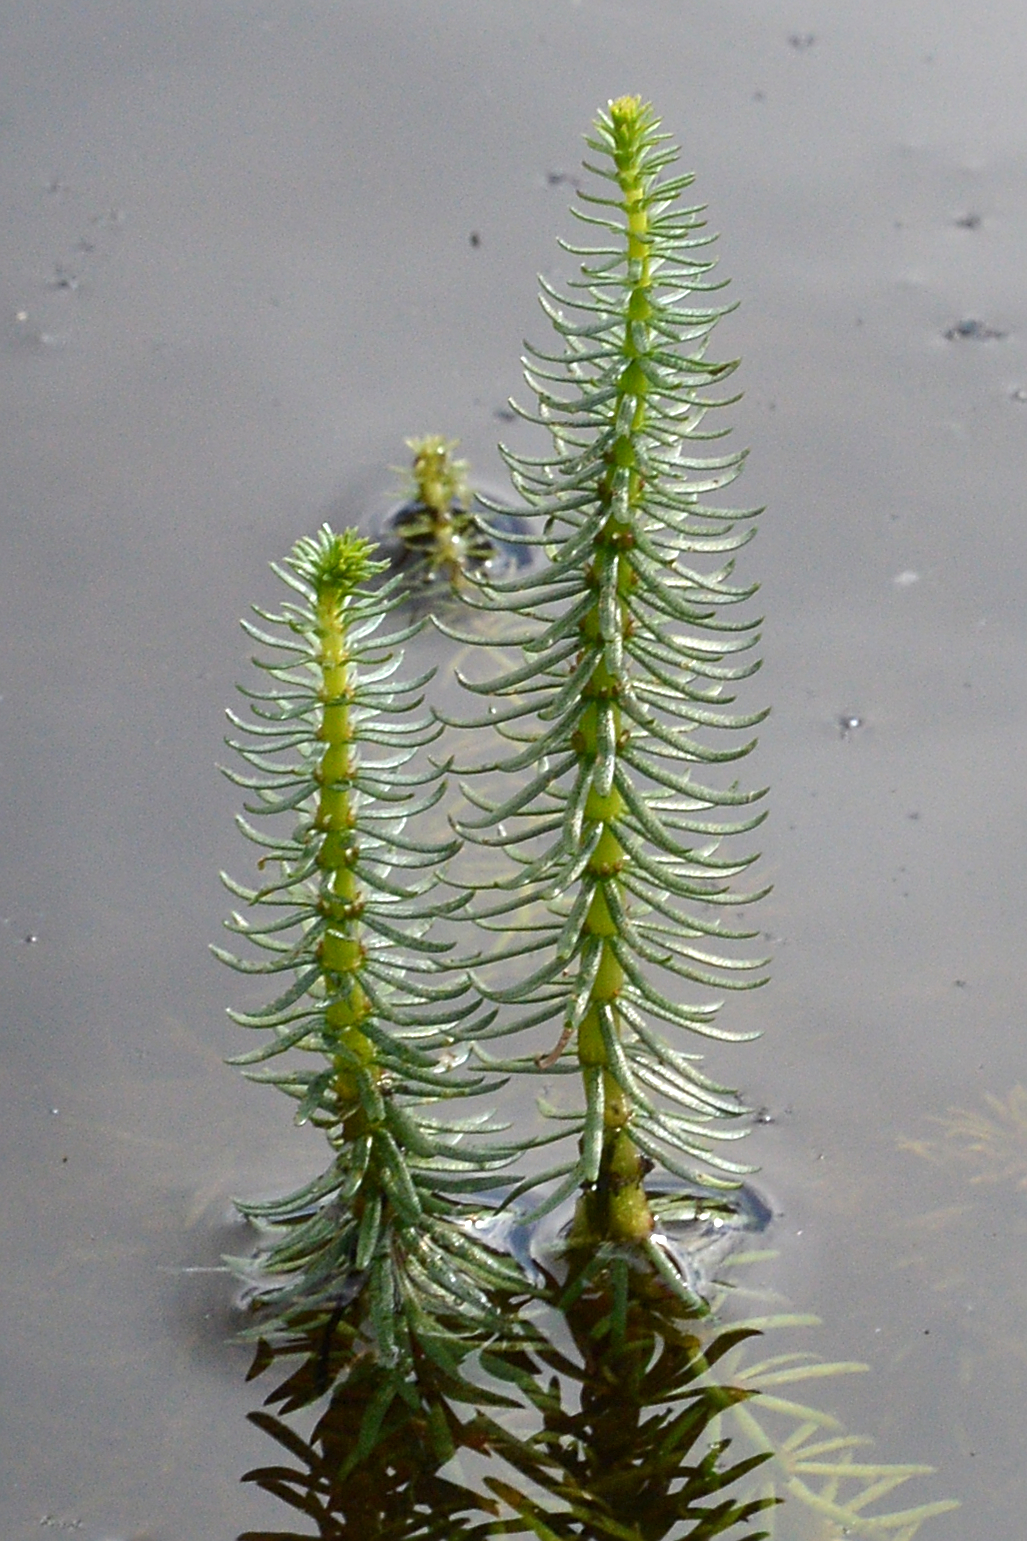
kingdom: Plantae
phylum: Tracheophyta
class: Magnoliopsida
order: Lamiales
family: Plantaginaceae
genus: Hippuris
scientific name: Hippuris vulgaris
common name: Mare's-tail
